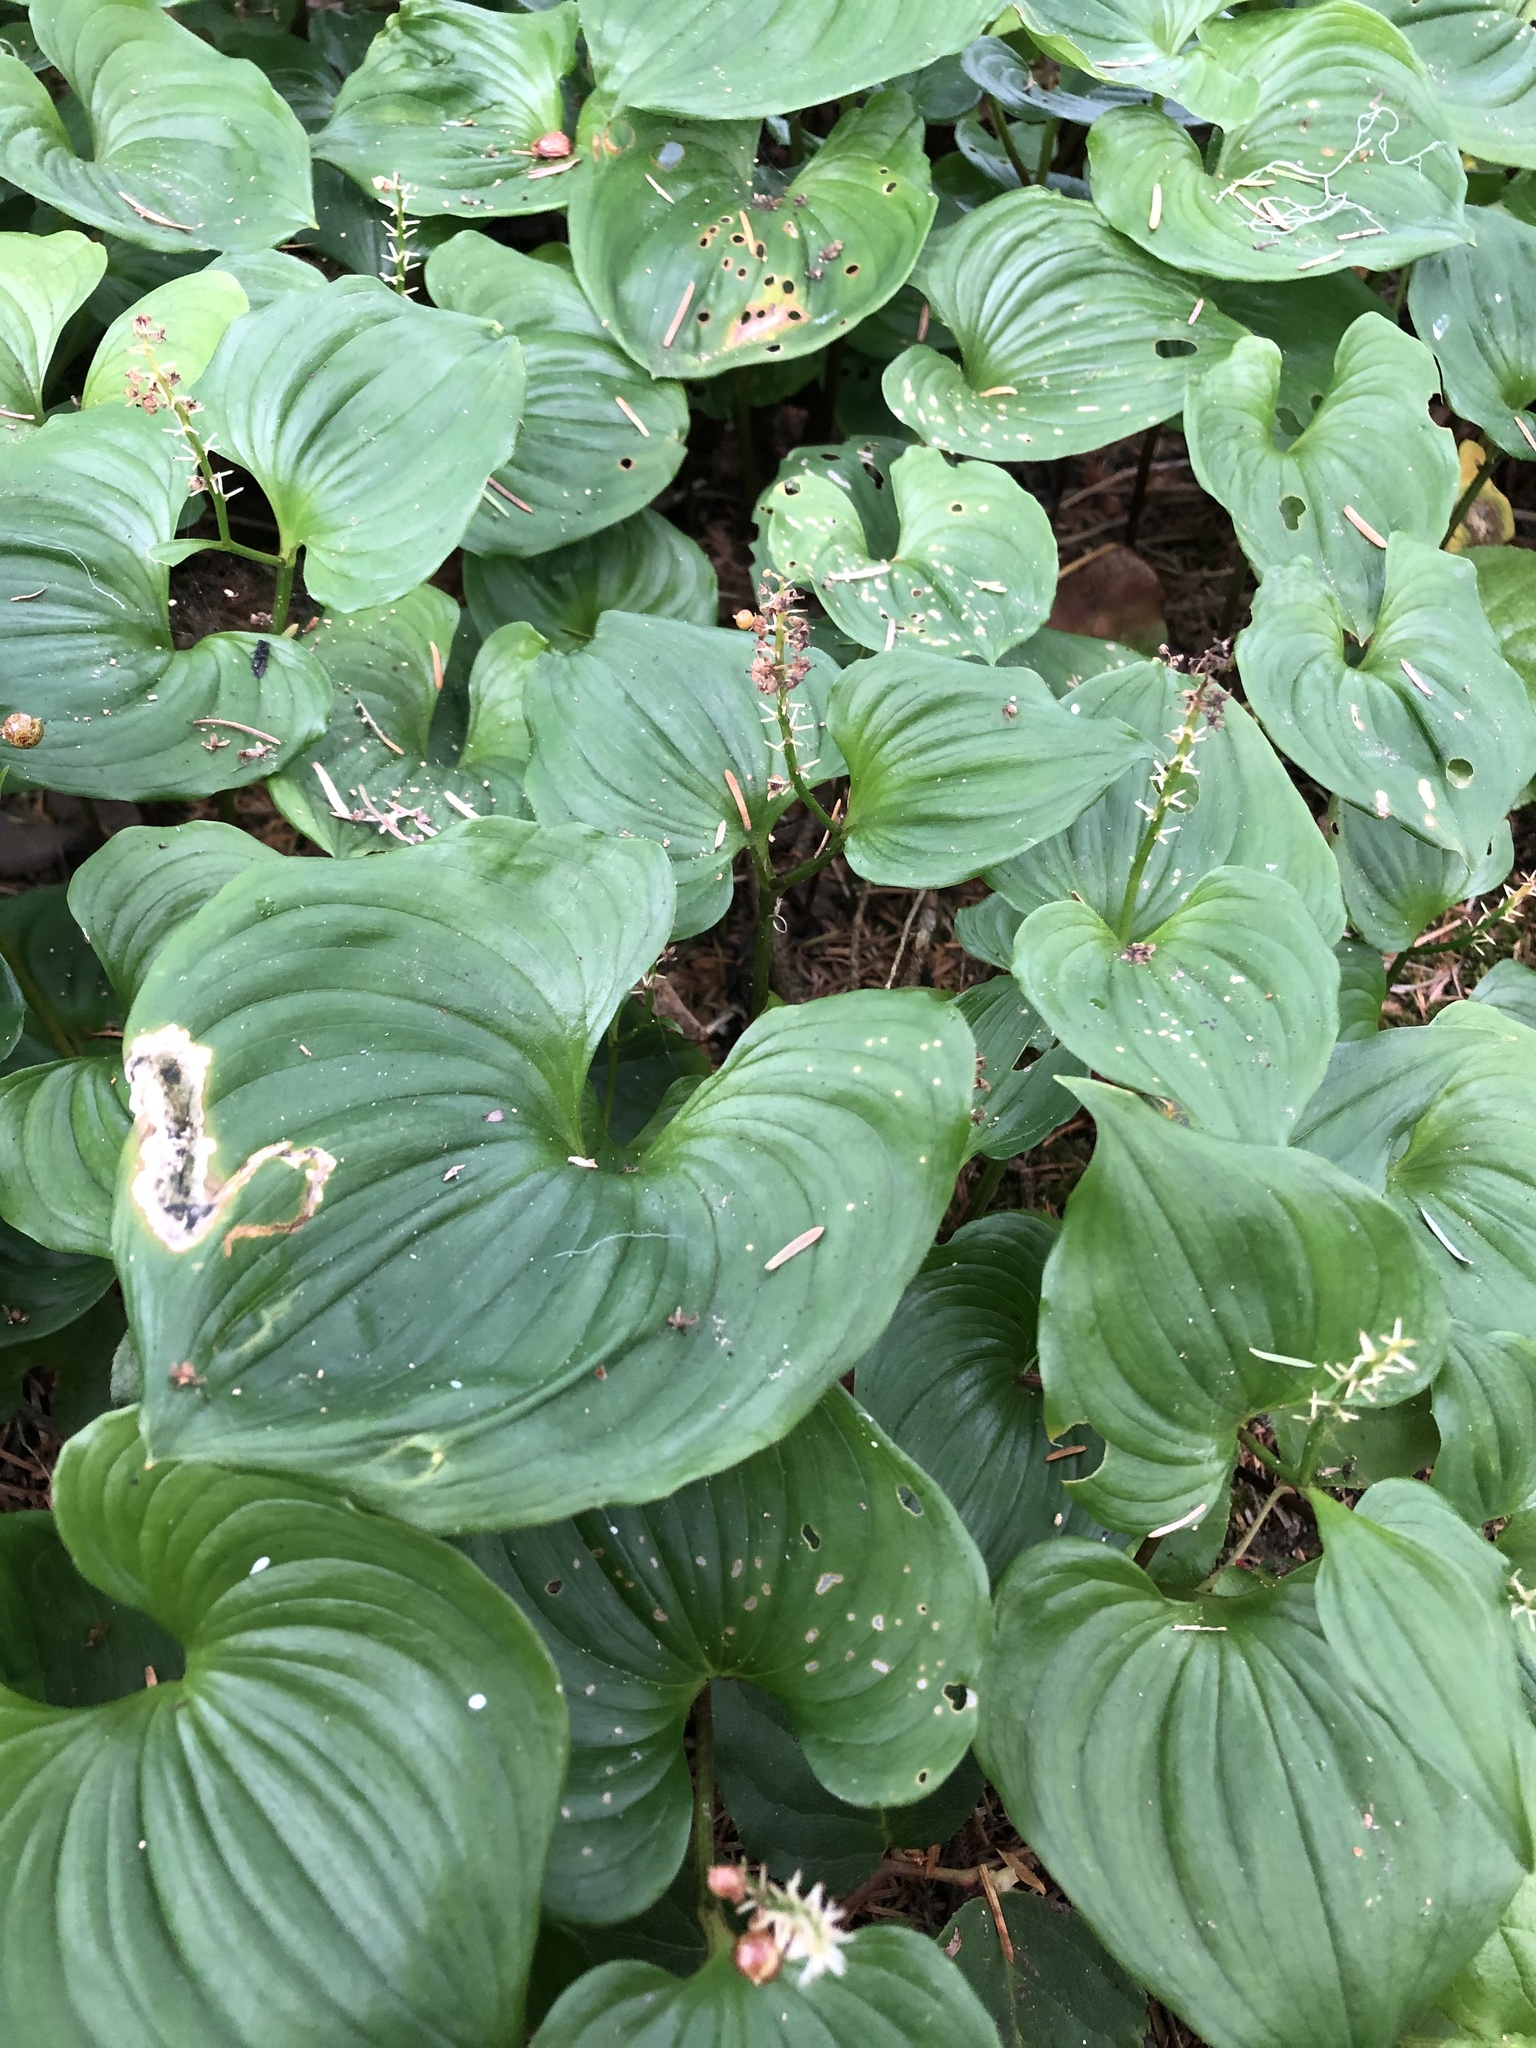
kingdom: Plantae
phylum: Tracheophyta
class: Liliopsida
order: Asparagales
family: Asparagaceae
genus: Maianthemum
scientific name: Maianthemum dilatatum
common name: False lily-of-the-valley
